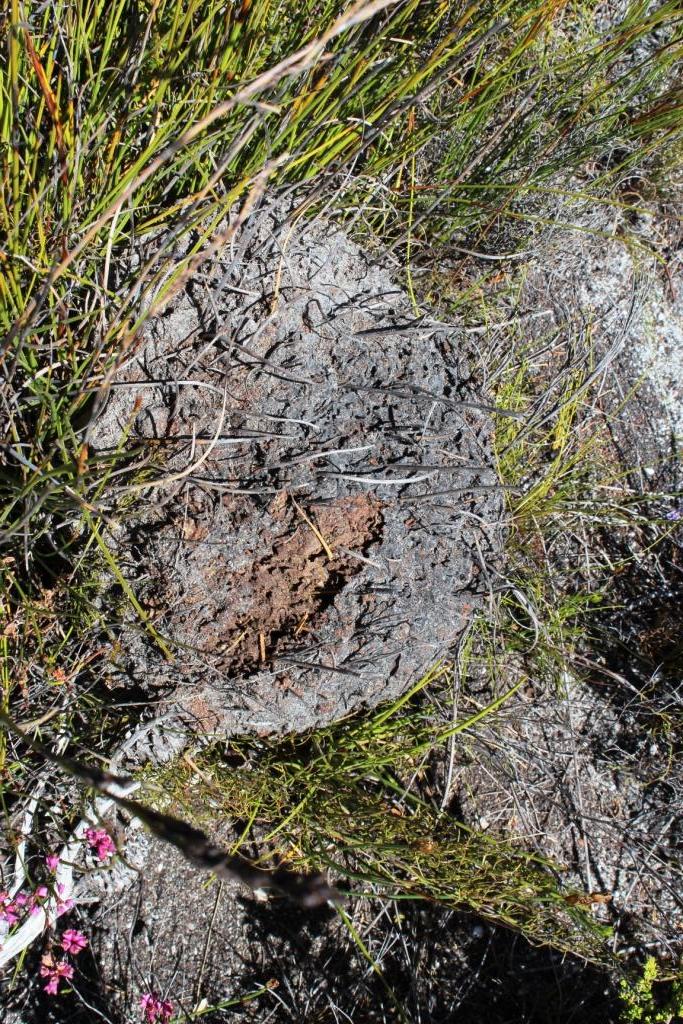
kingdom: Animalia
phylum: Arthropoda
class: Insecta
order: Hymenoptera
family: Formicidae
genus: Crematogaster
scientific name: Crematogaster peringueyi
